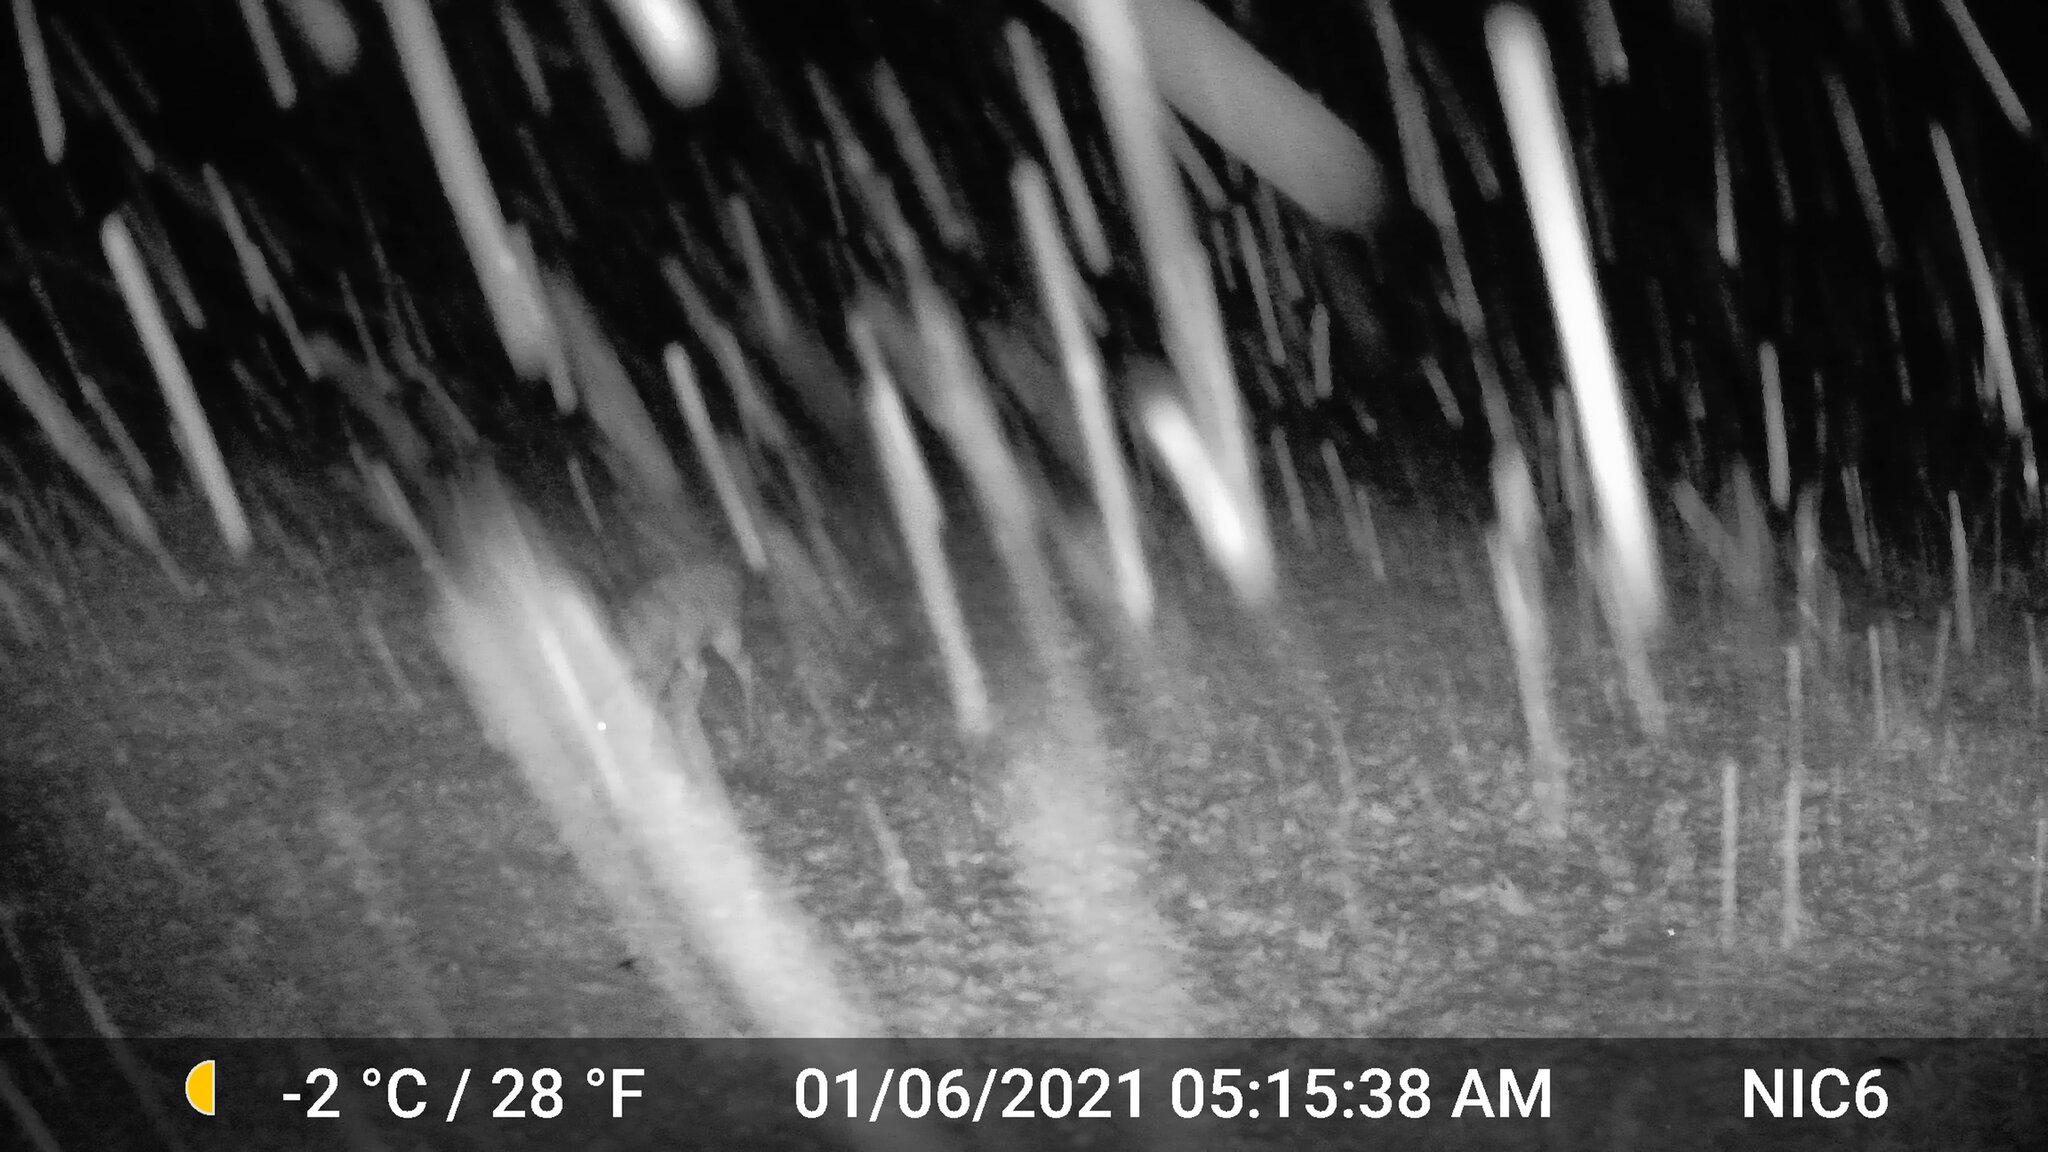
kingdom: Animalia
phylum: Chordata
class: Mammalia
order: Artiodactyla
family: Cervidae
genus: Odocoileus
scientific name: Odocoileus virginianus
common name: White-tailed deer
